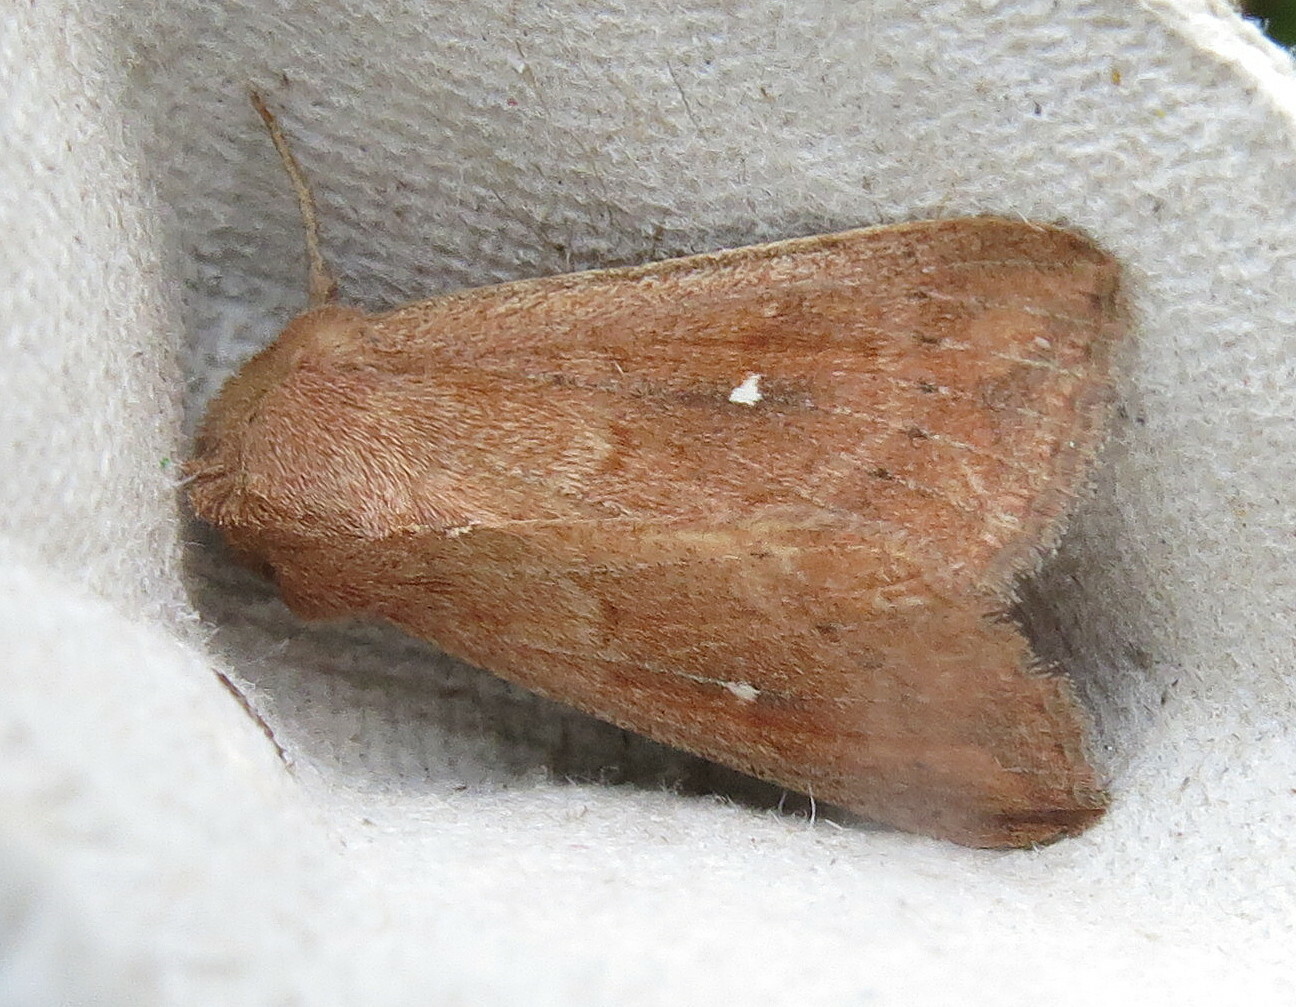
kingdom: Animalia
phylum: Arthropoda
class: Insecta
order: Lepidoptera
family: Noctuidae
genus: Mythimna
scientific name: Mythimna albipuncta
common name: White-point
